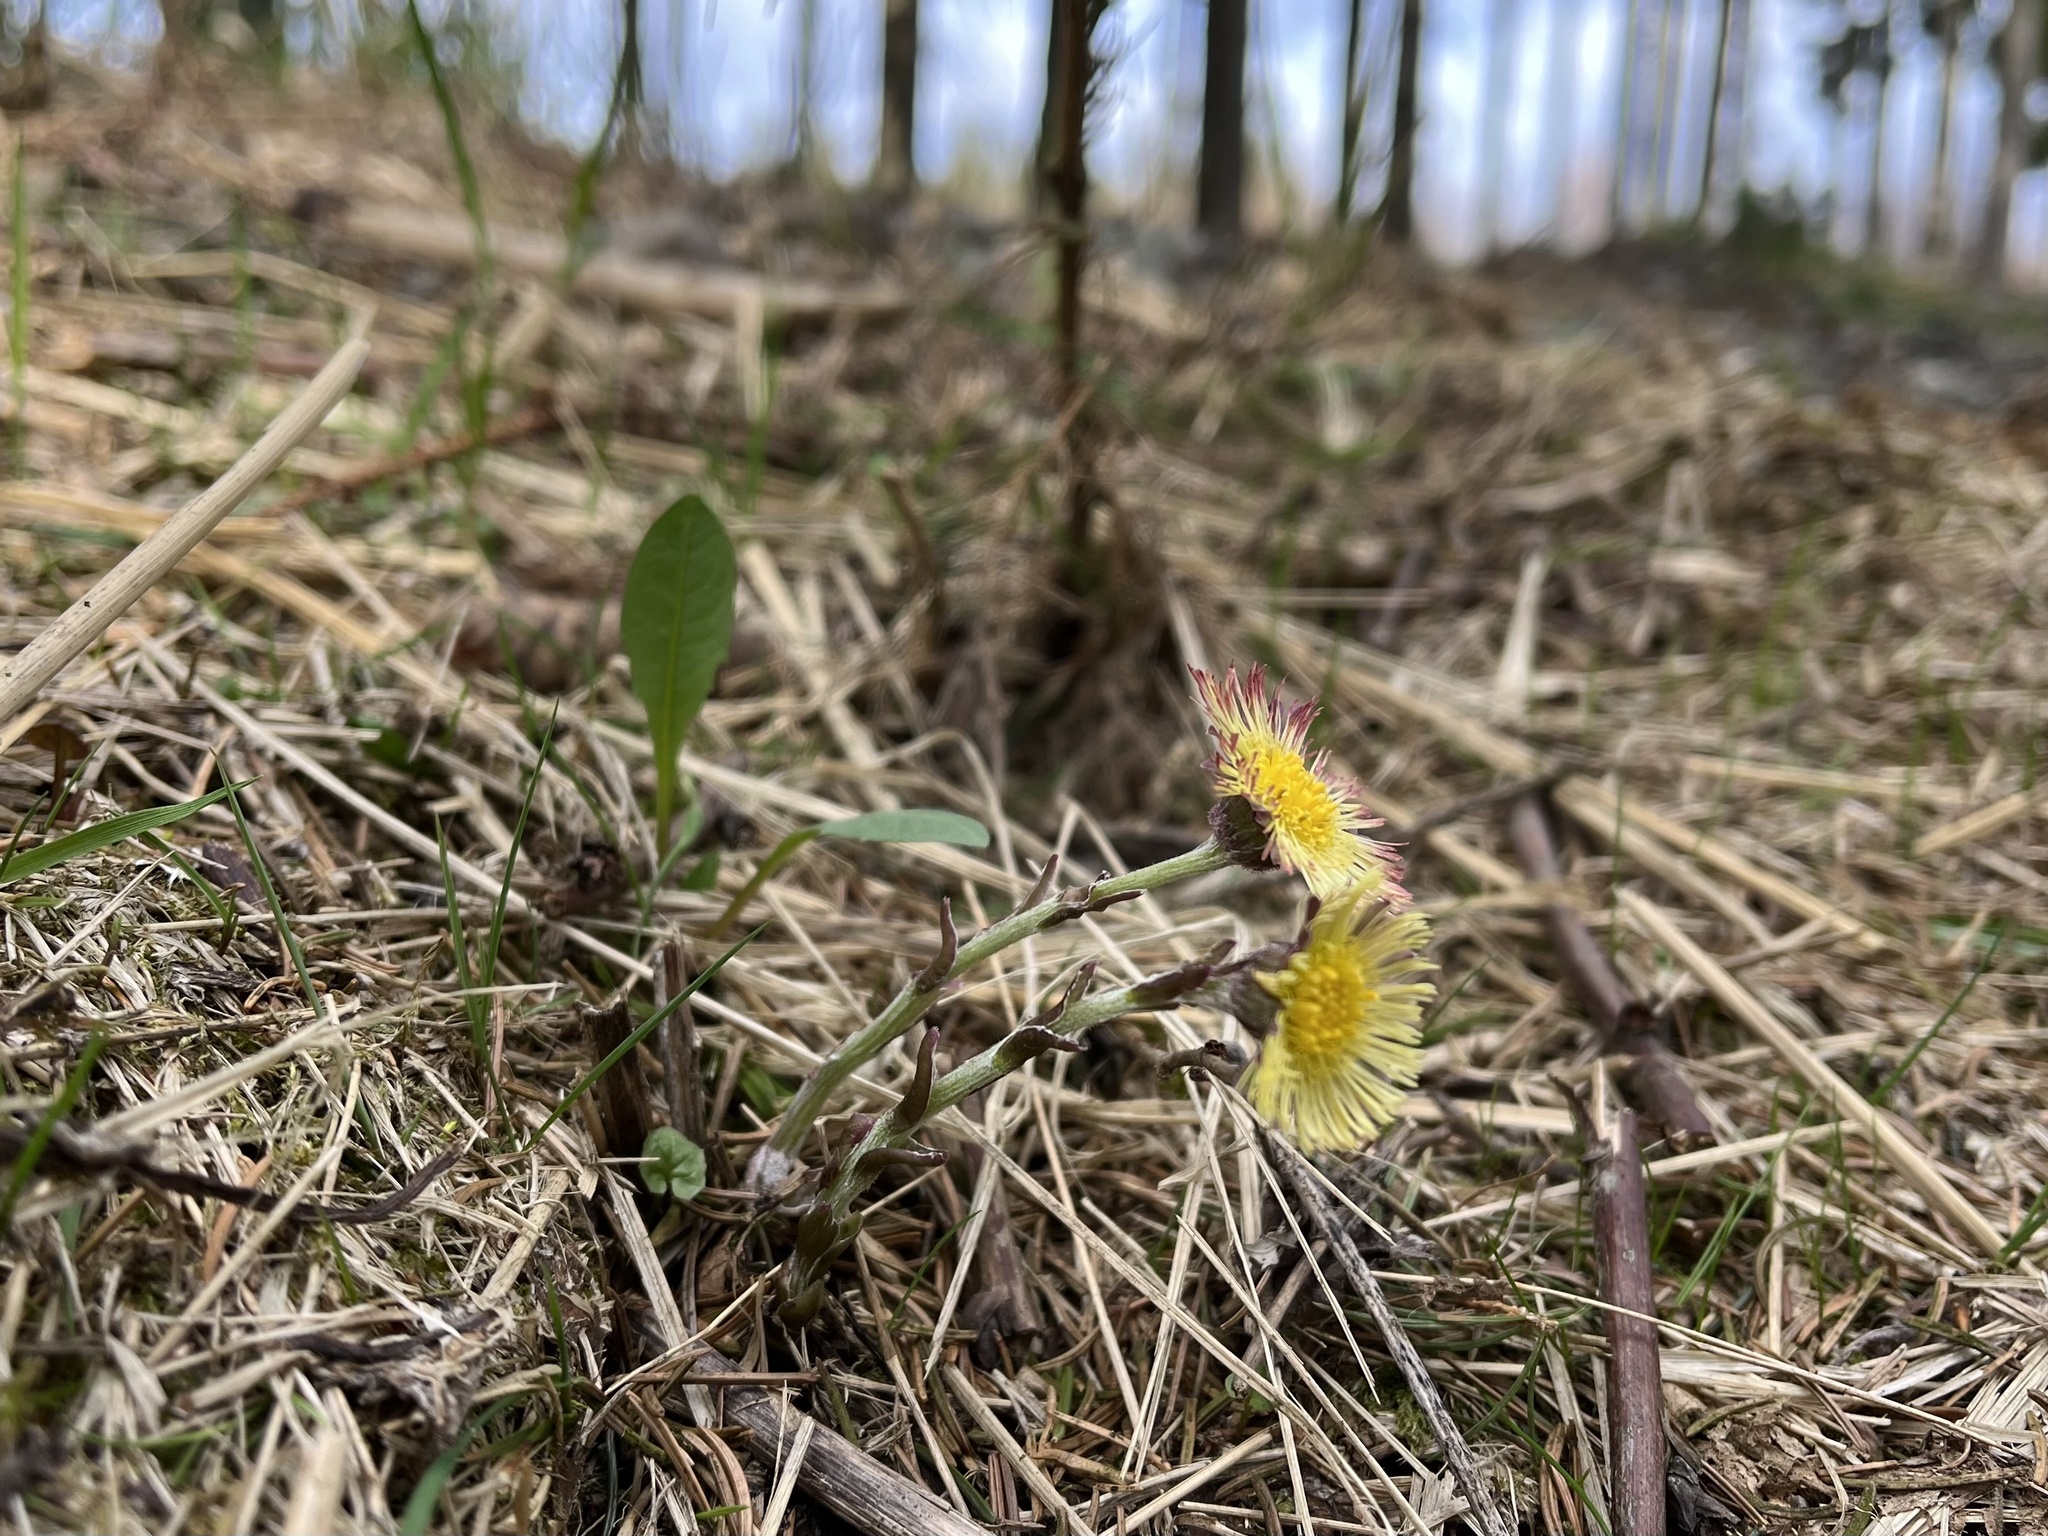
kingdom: Plantae
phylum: Tracheophyta
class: Magnoliopsida
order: Asterales
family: Asteraceae
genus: Tussilago
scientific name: Tussilago farfara
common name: Coltsfoot
